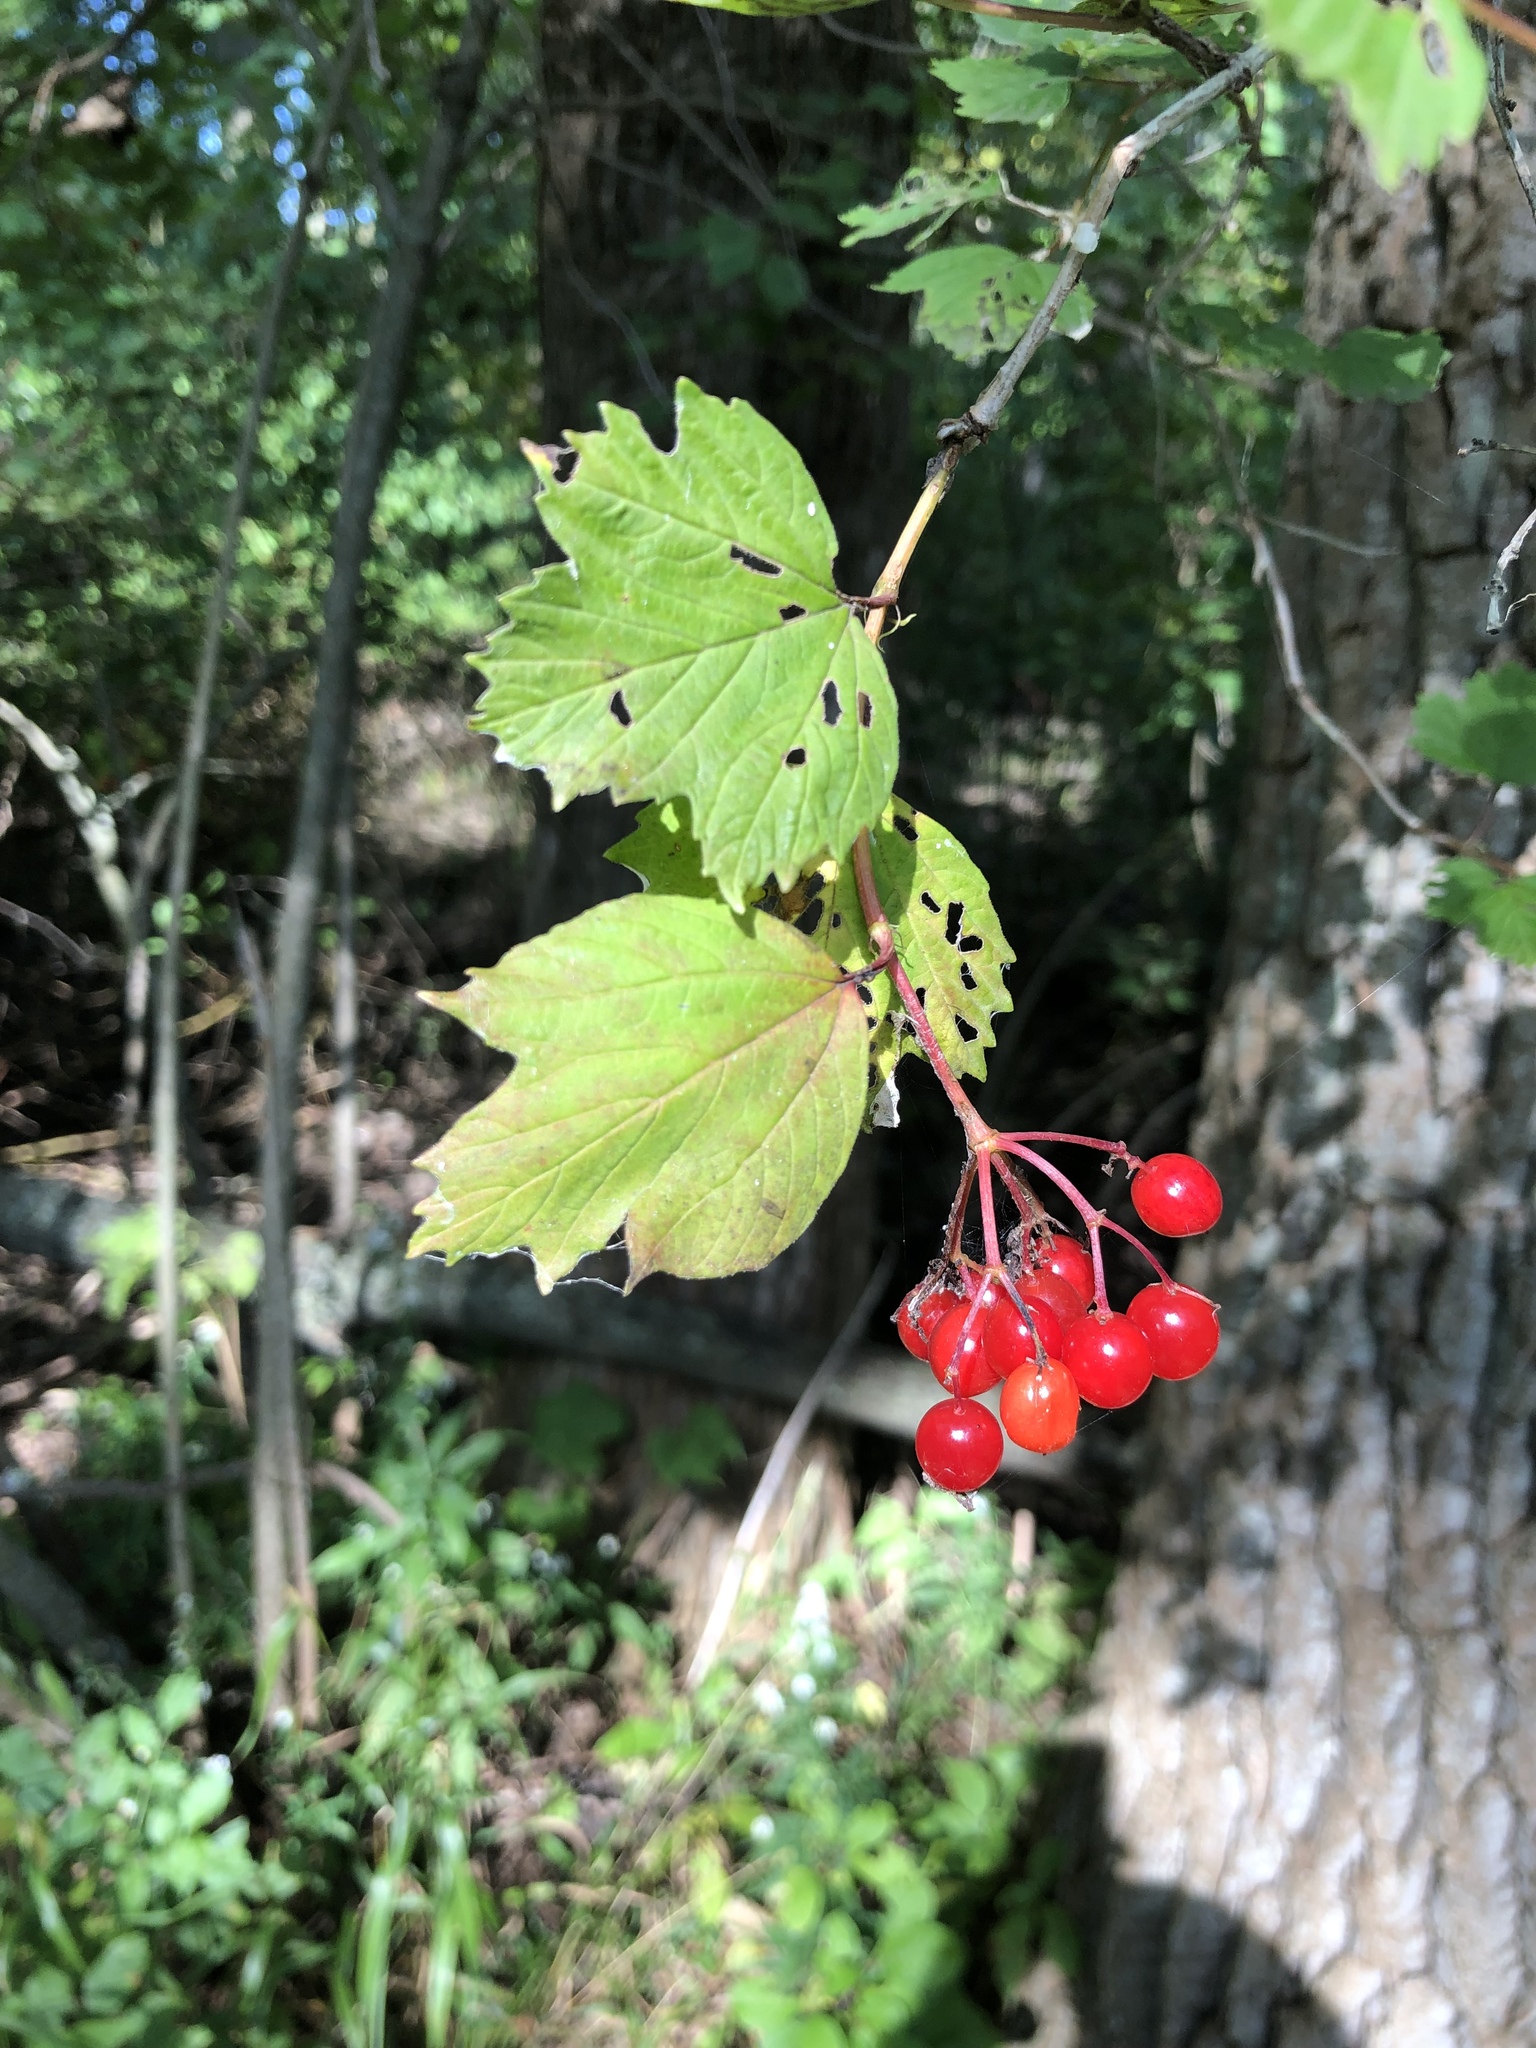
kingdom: Plantae
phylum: Tracheophyta
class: Magnoliopsida
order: Dipsacales
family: Viburnaceae
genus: Viburnum
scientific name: Viburnum opulus
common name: Guelder-rose
